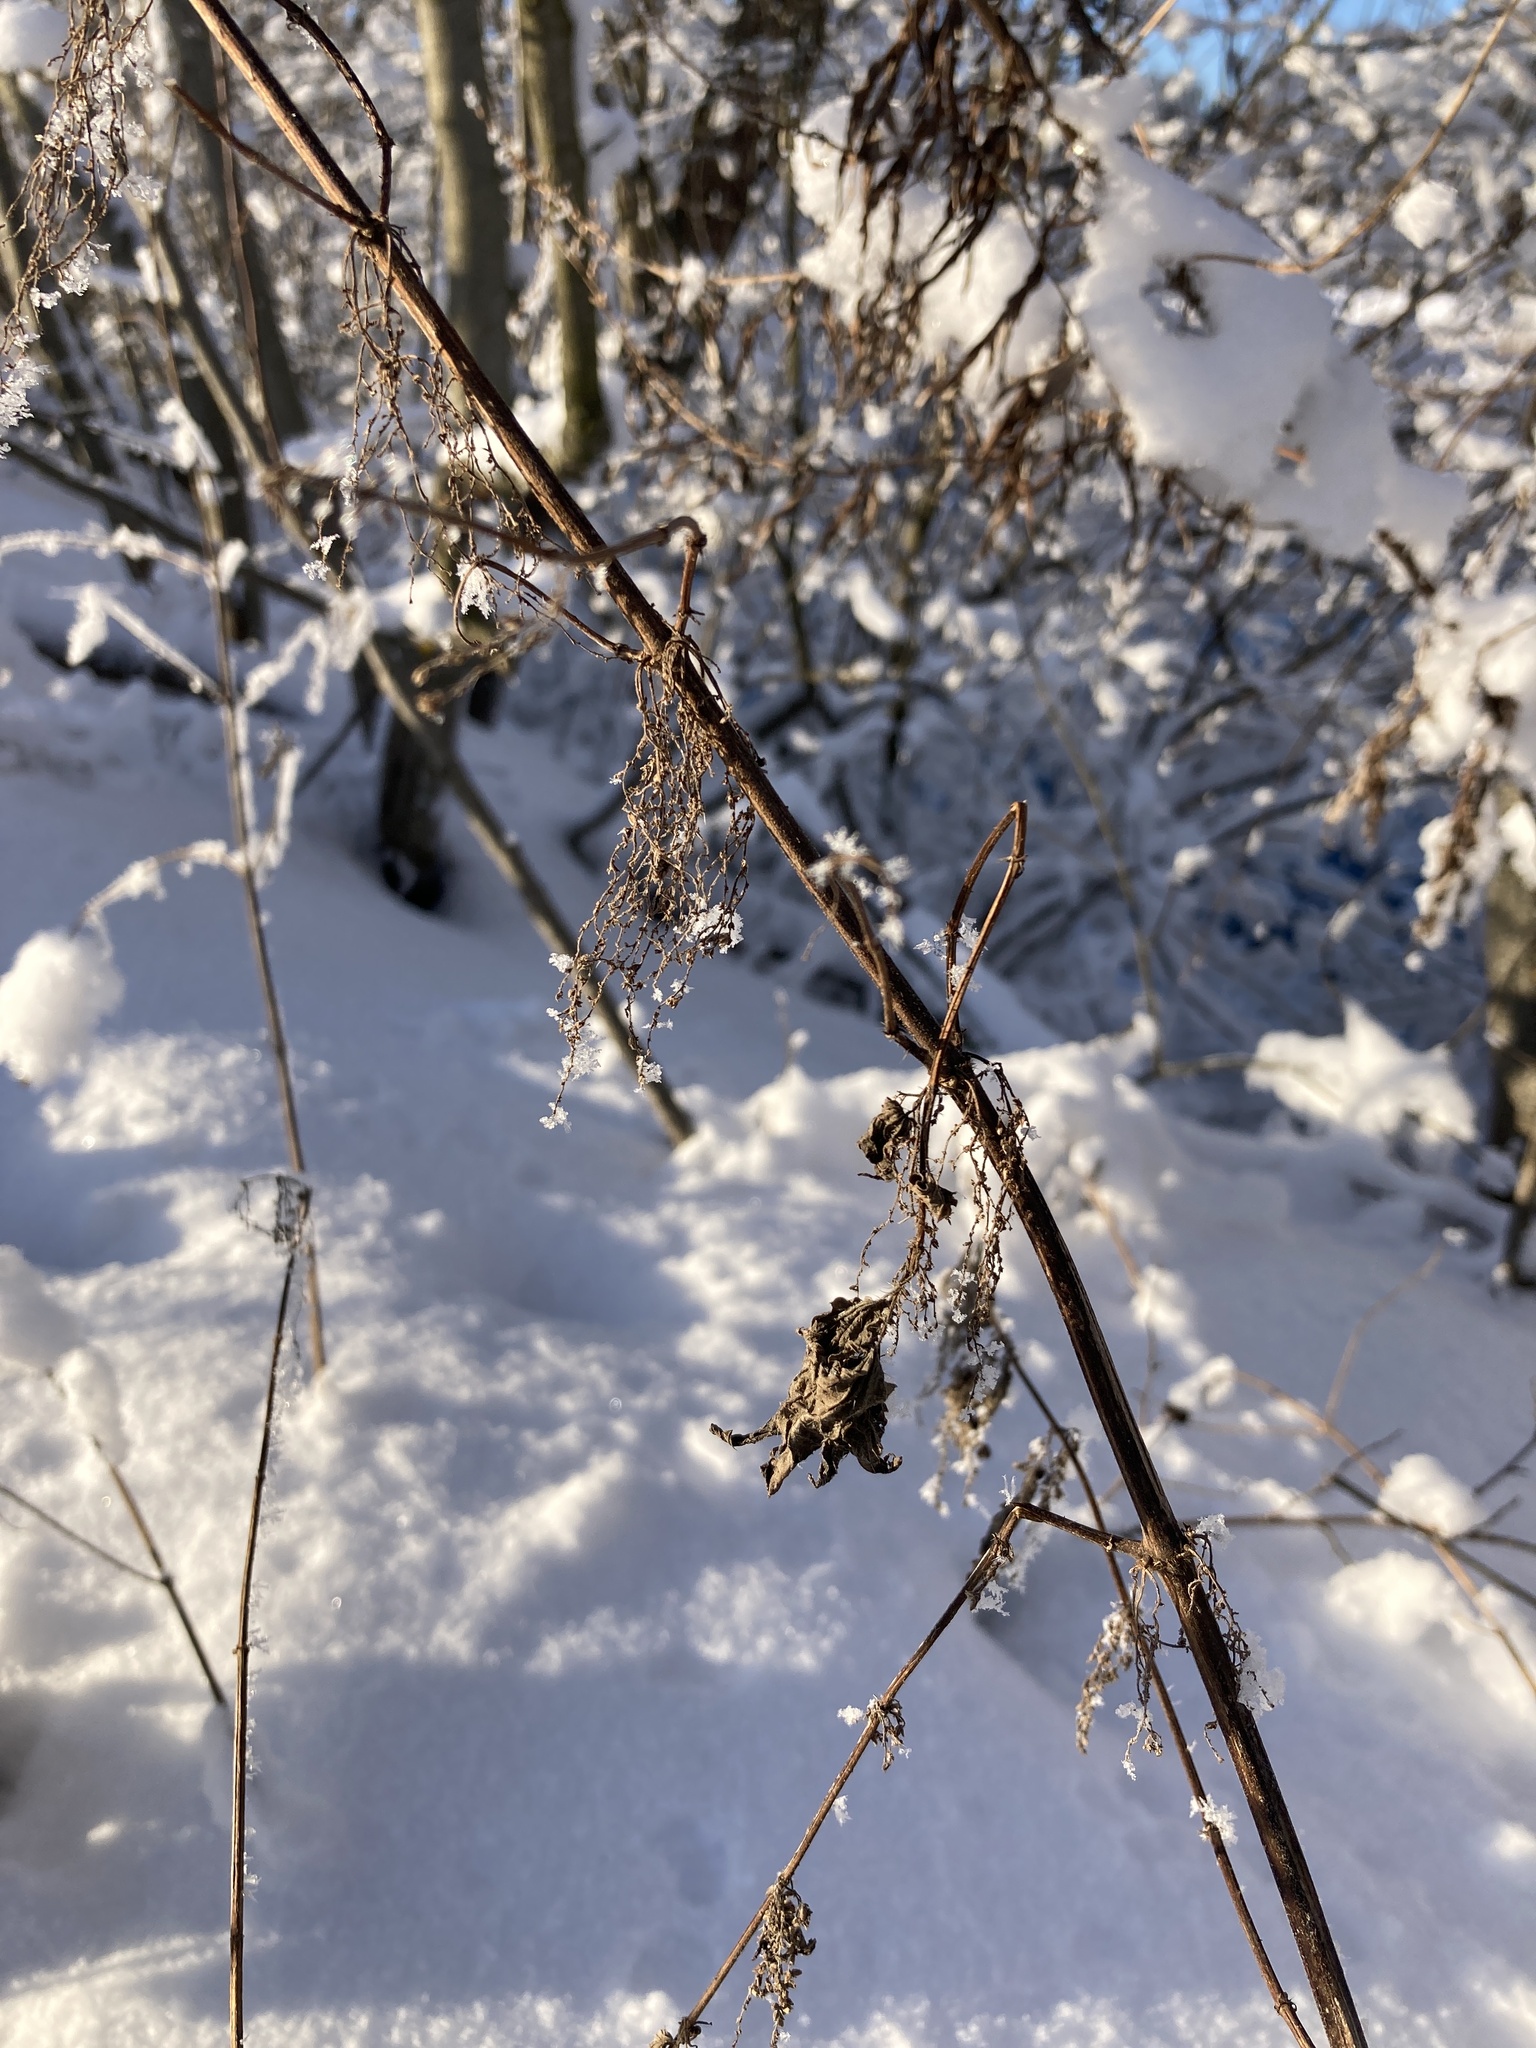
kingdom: Plantae
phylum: Tracheophyta
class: Magnoliopsida
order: Rosales
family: Urticaceae
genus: Urtica
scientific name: Urtica dioica
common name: Common nettle
